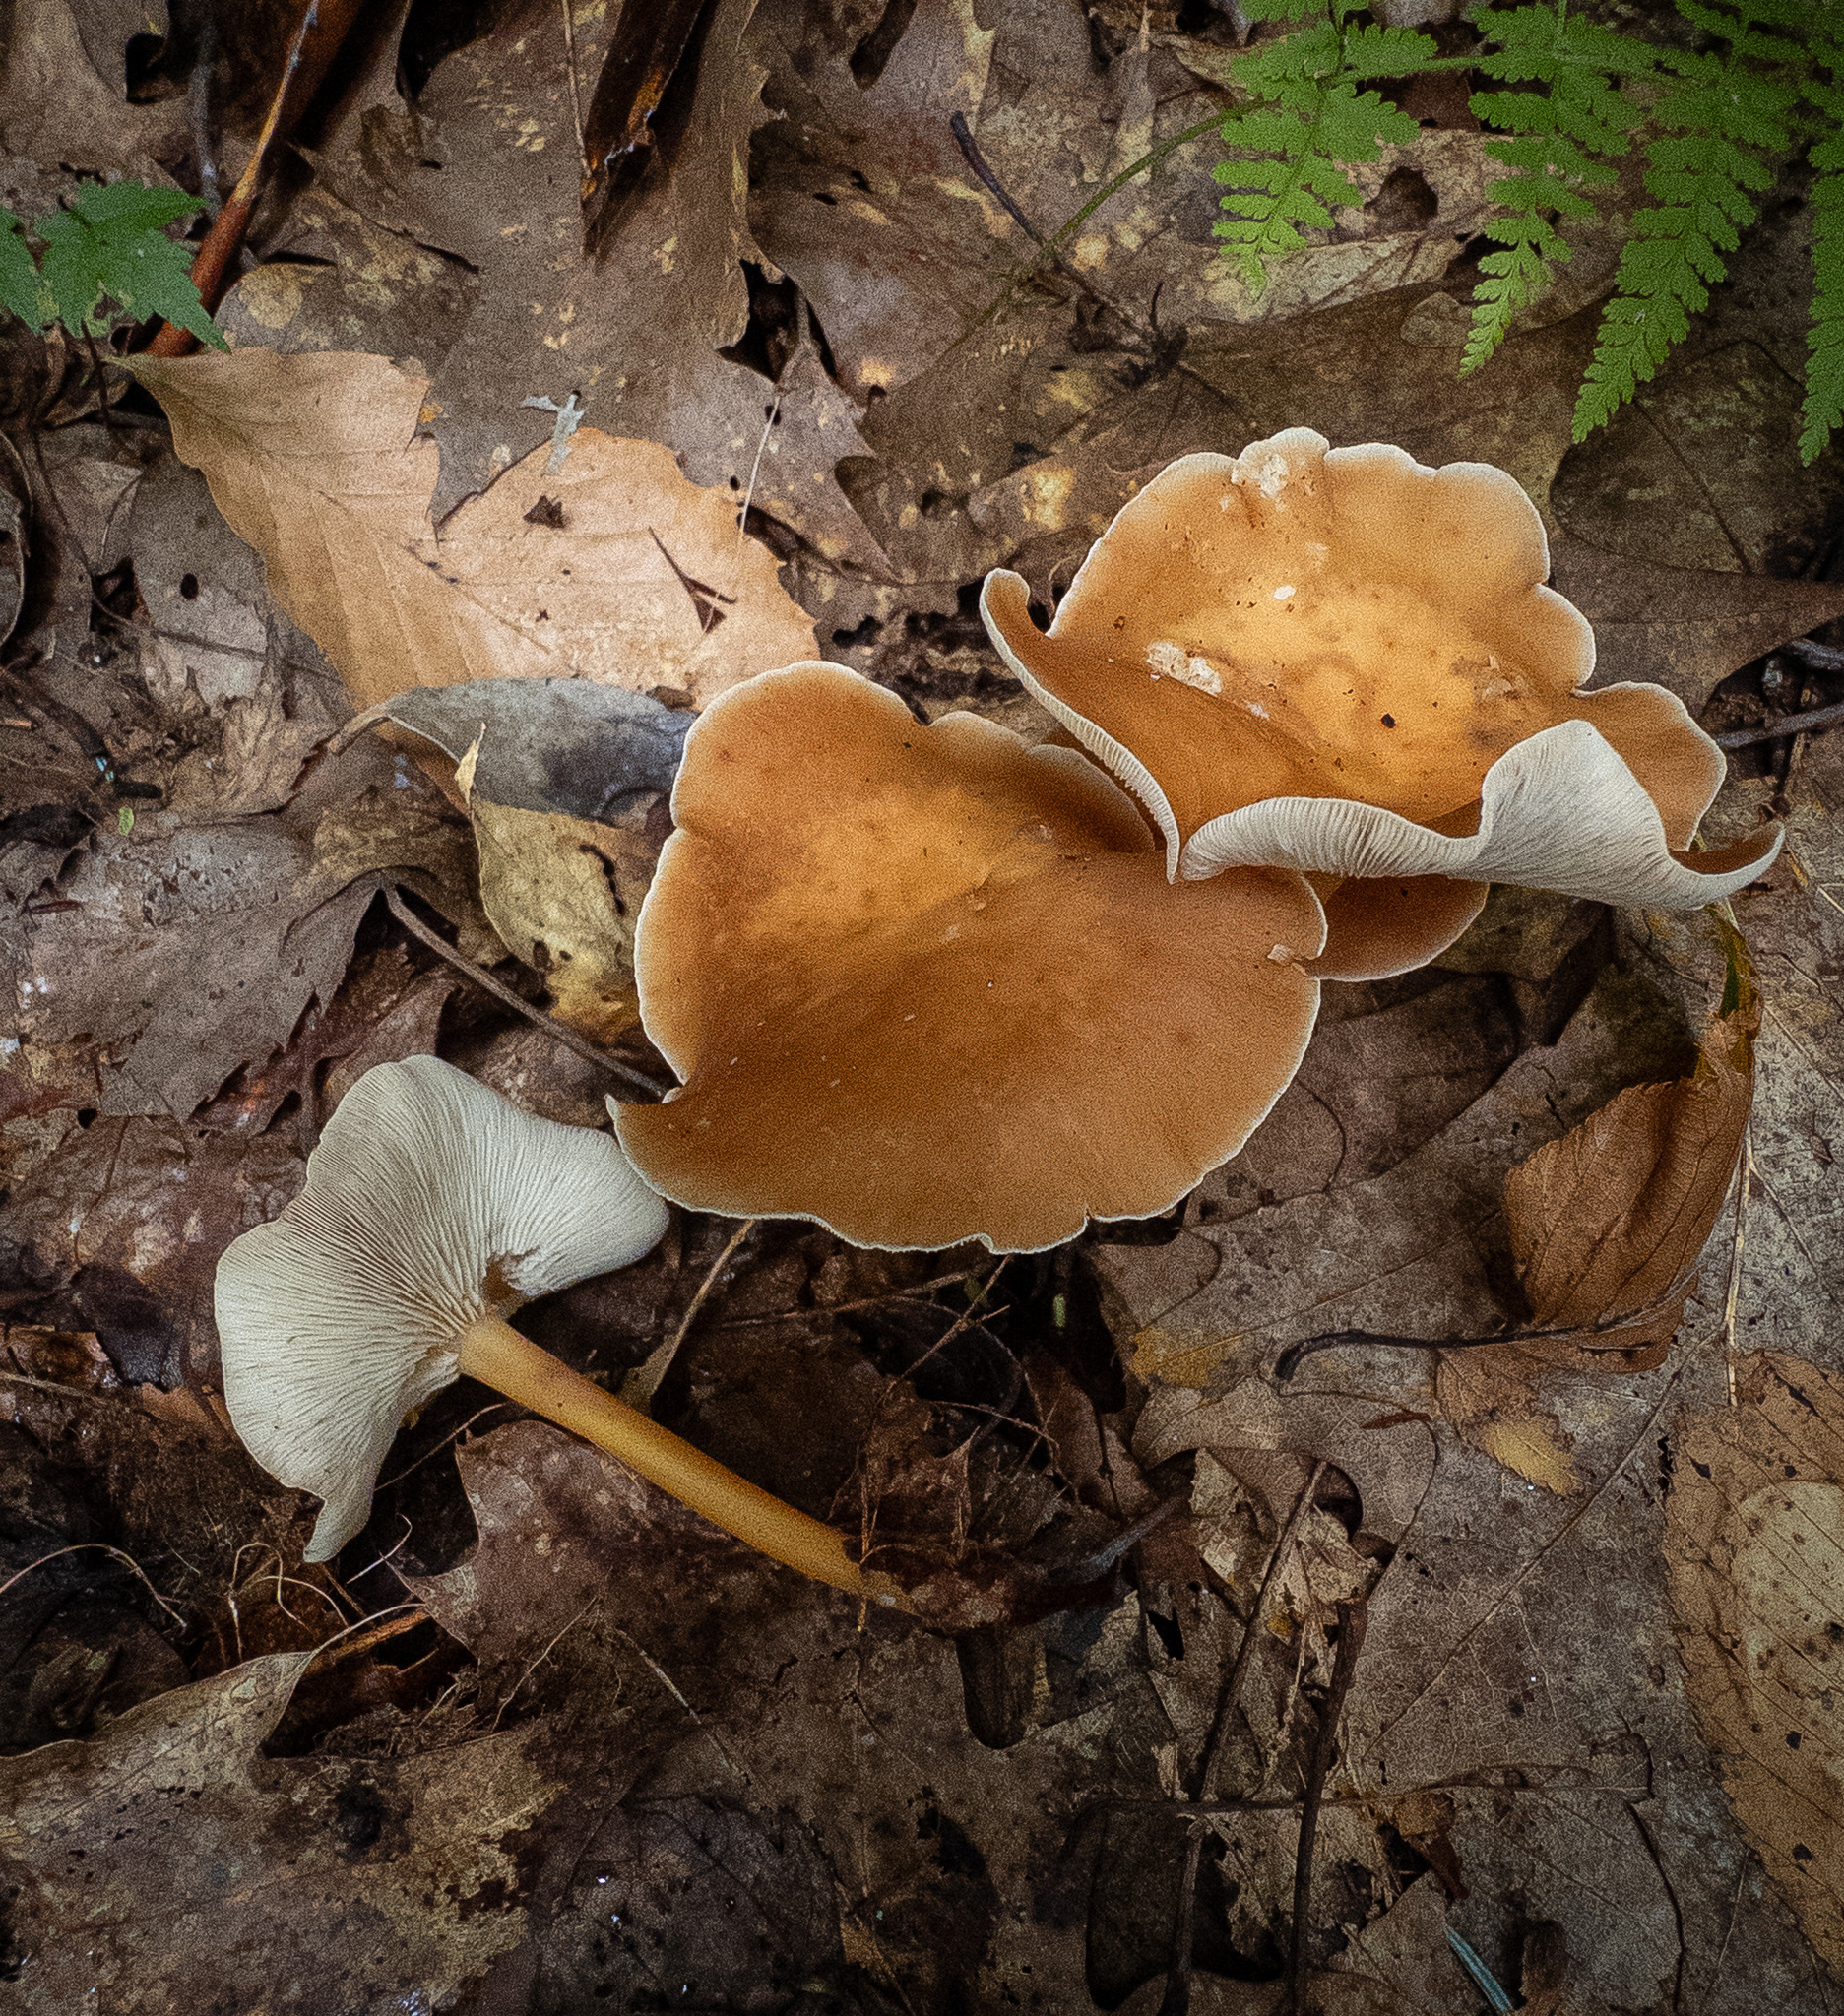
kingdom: Fungi
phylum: Basidiomycota
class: Agaricomycetes
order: Agaricales
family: Omphalotaceae
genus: Gymnopus
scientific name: Gymnopus dryophilus
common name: Penny top
